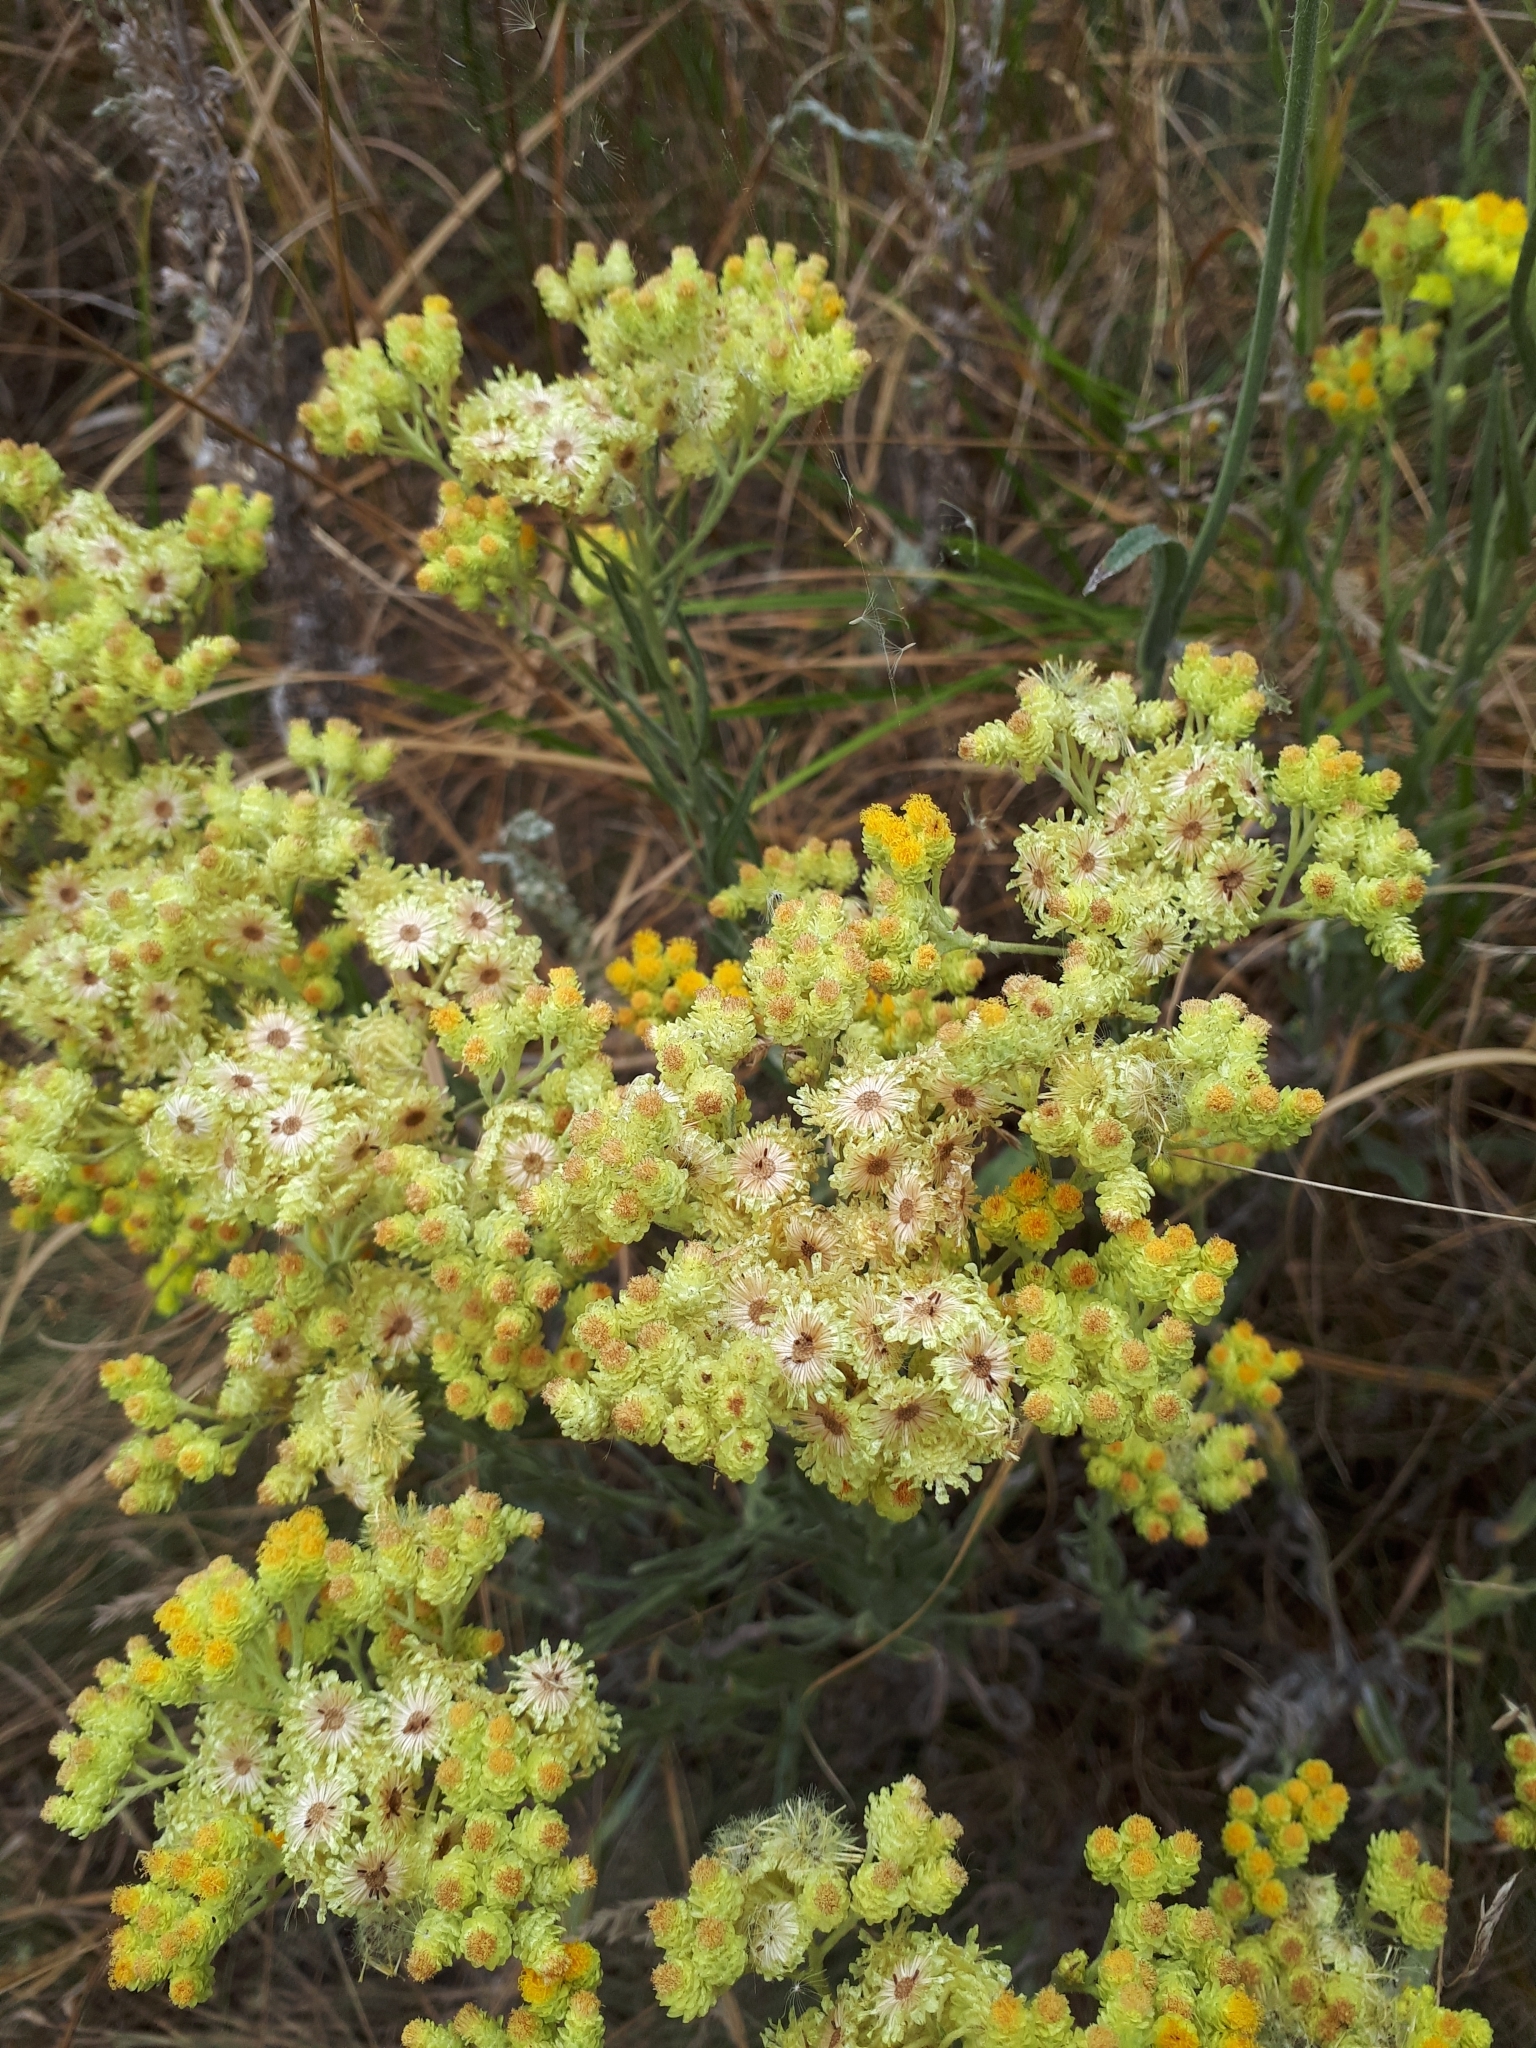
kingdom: Plantae
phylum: Tracheophyta
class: Magnoliopsida
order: Asterales
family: Asteraceae
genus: Helichrysum
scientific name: Helichrysum arenarium
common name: Strawflower
